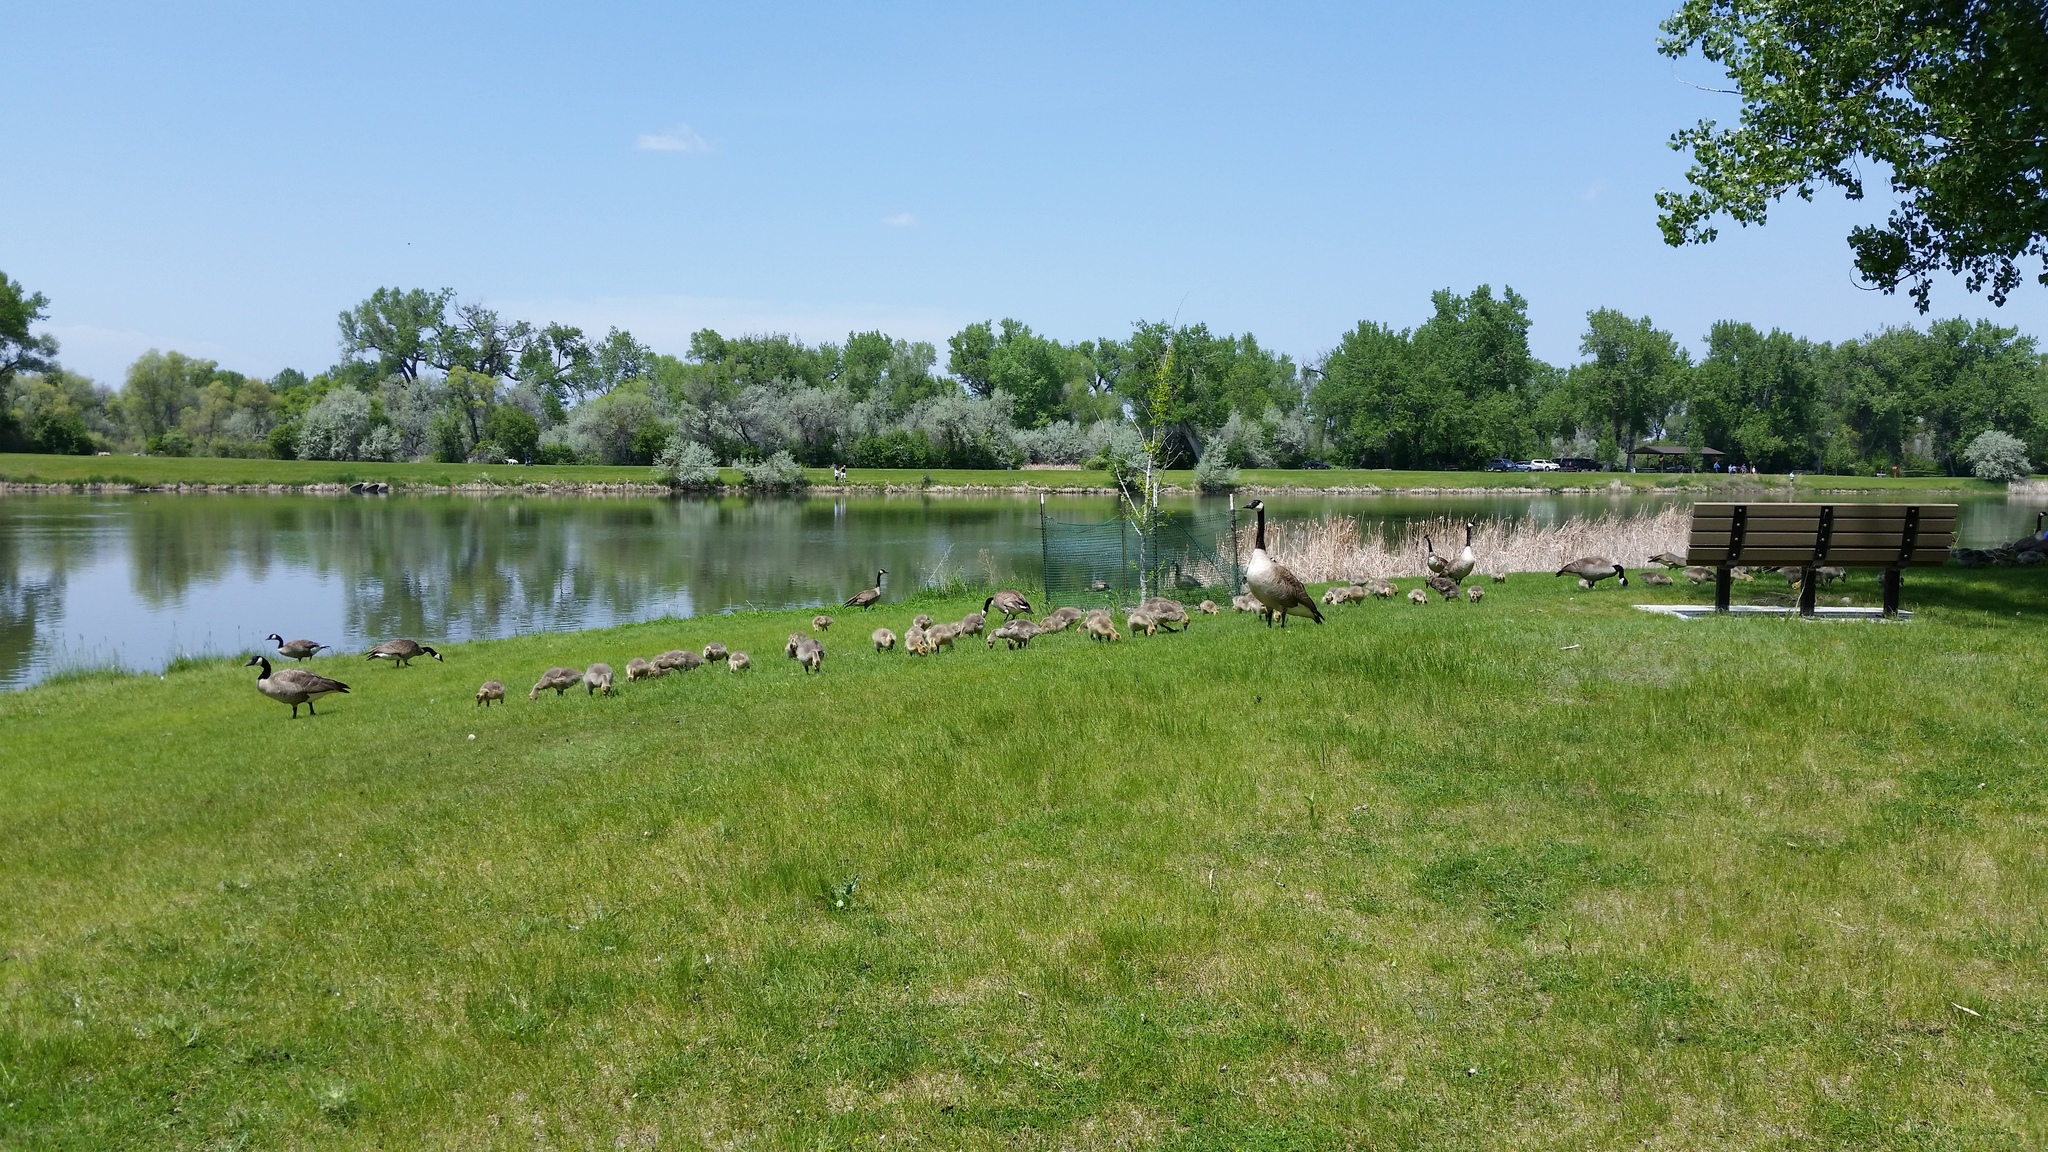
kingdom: Animalia
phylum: Chordata
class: Aves
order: Anseriformes
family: Anatidae
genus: Branta
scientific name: Branta canadensis
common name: Canada goose
